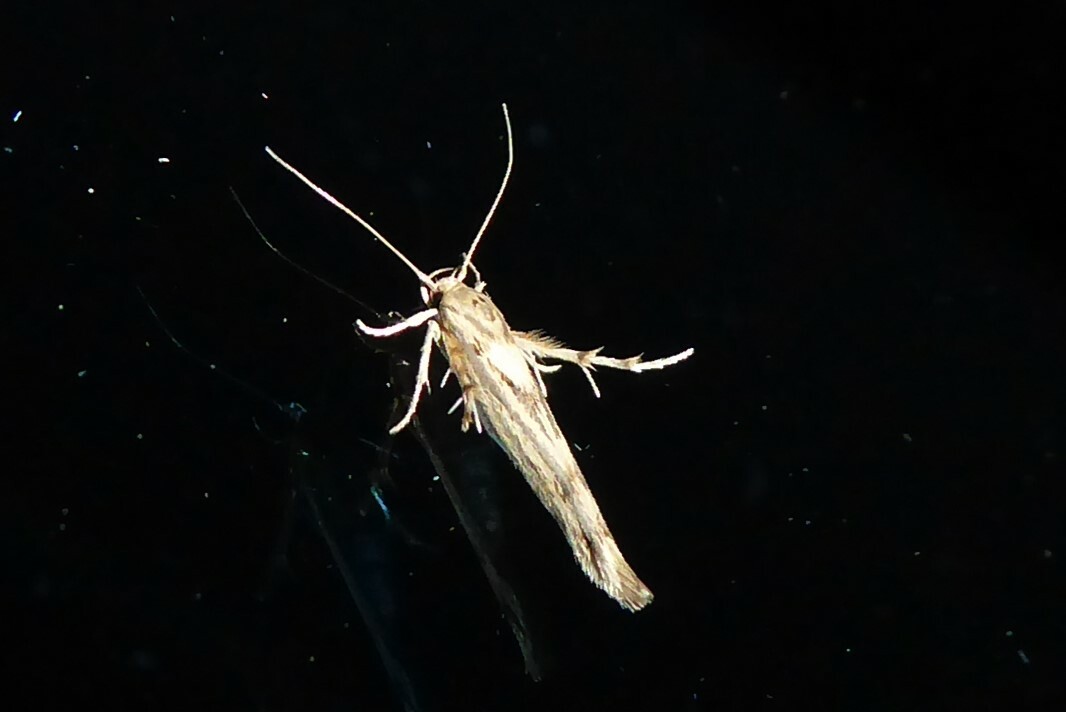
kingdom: Animalia
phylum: Arthropoda
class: Insecta
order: Lepidoptera
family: Stathmopodidae
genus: Stathmopoda
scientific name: Stathmopoda plumbiflua
